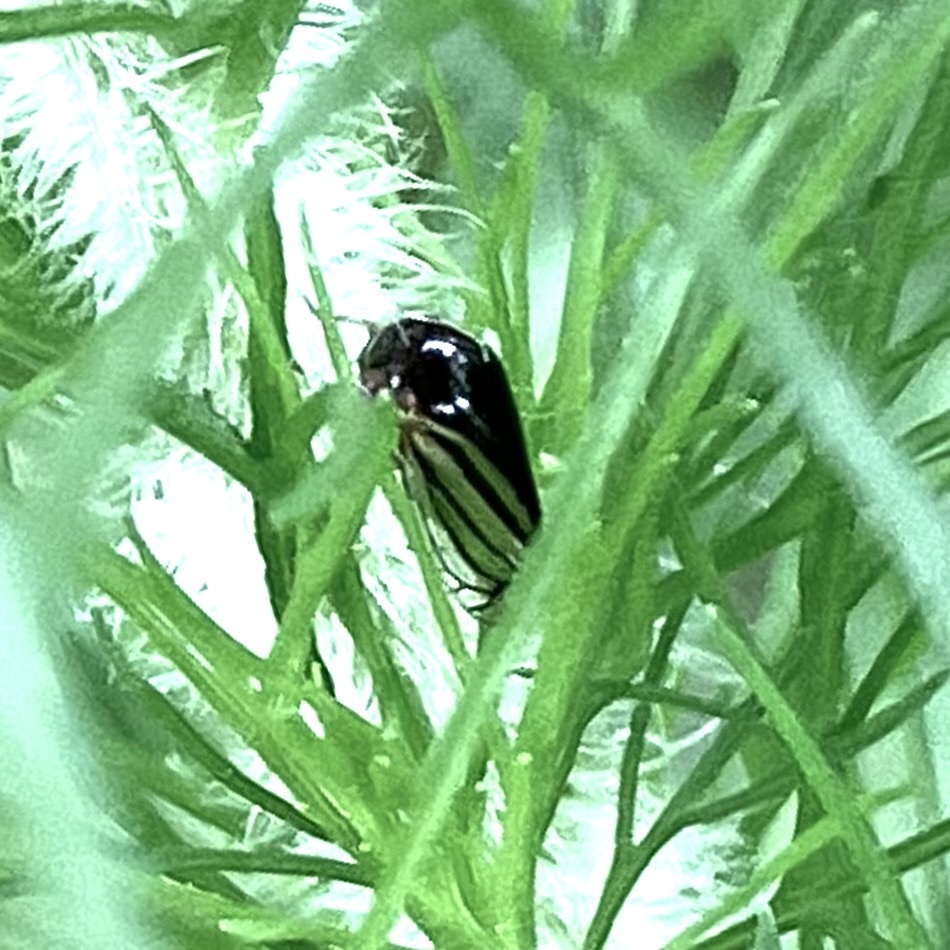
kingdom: Animalia
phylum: Arthropoda
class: Insecta
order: Hemiptera
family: Membracidae
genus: Acutalis
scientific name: Acutalis tartarea
